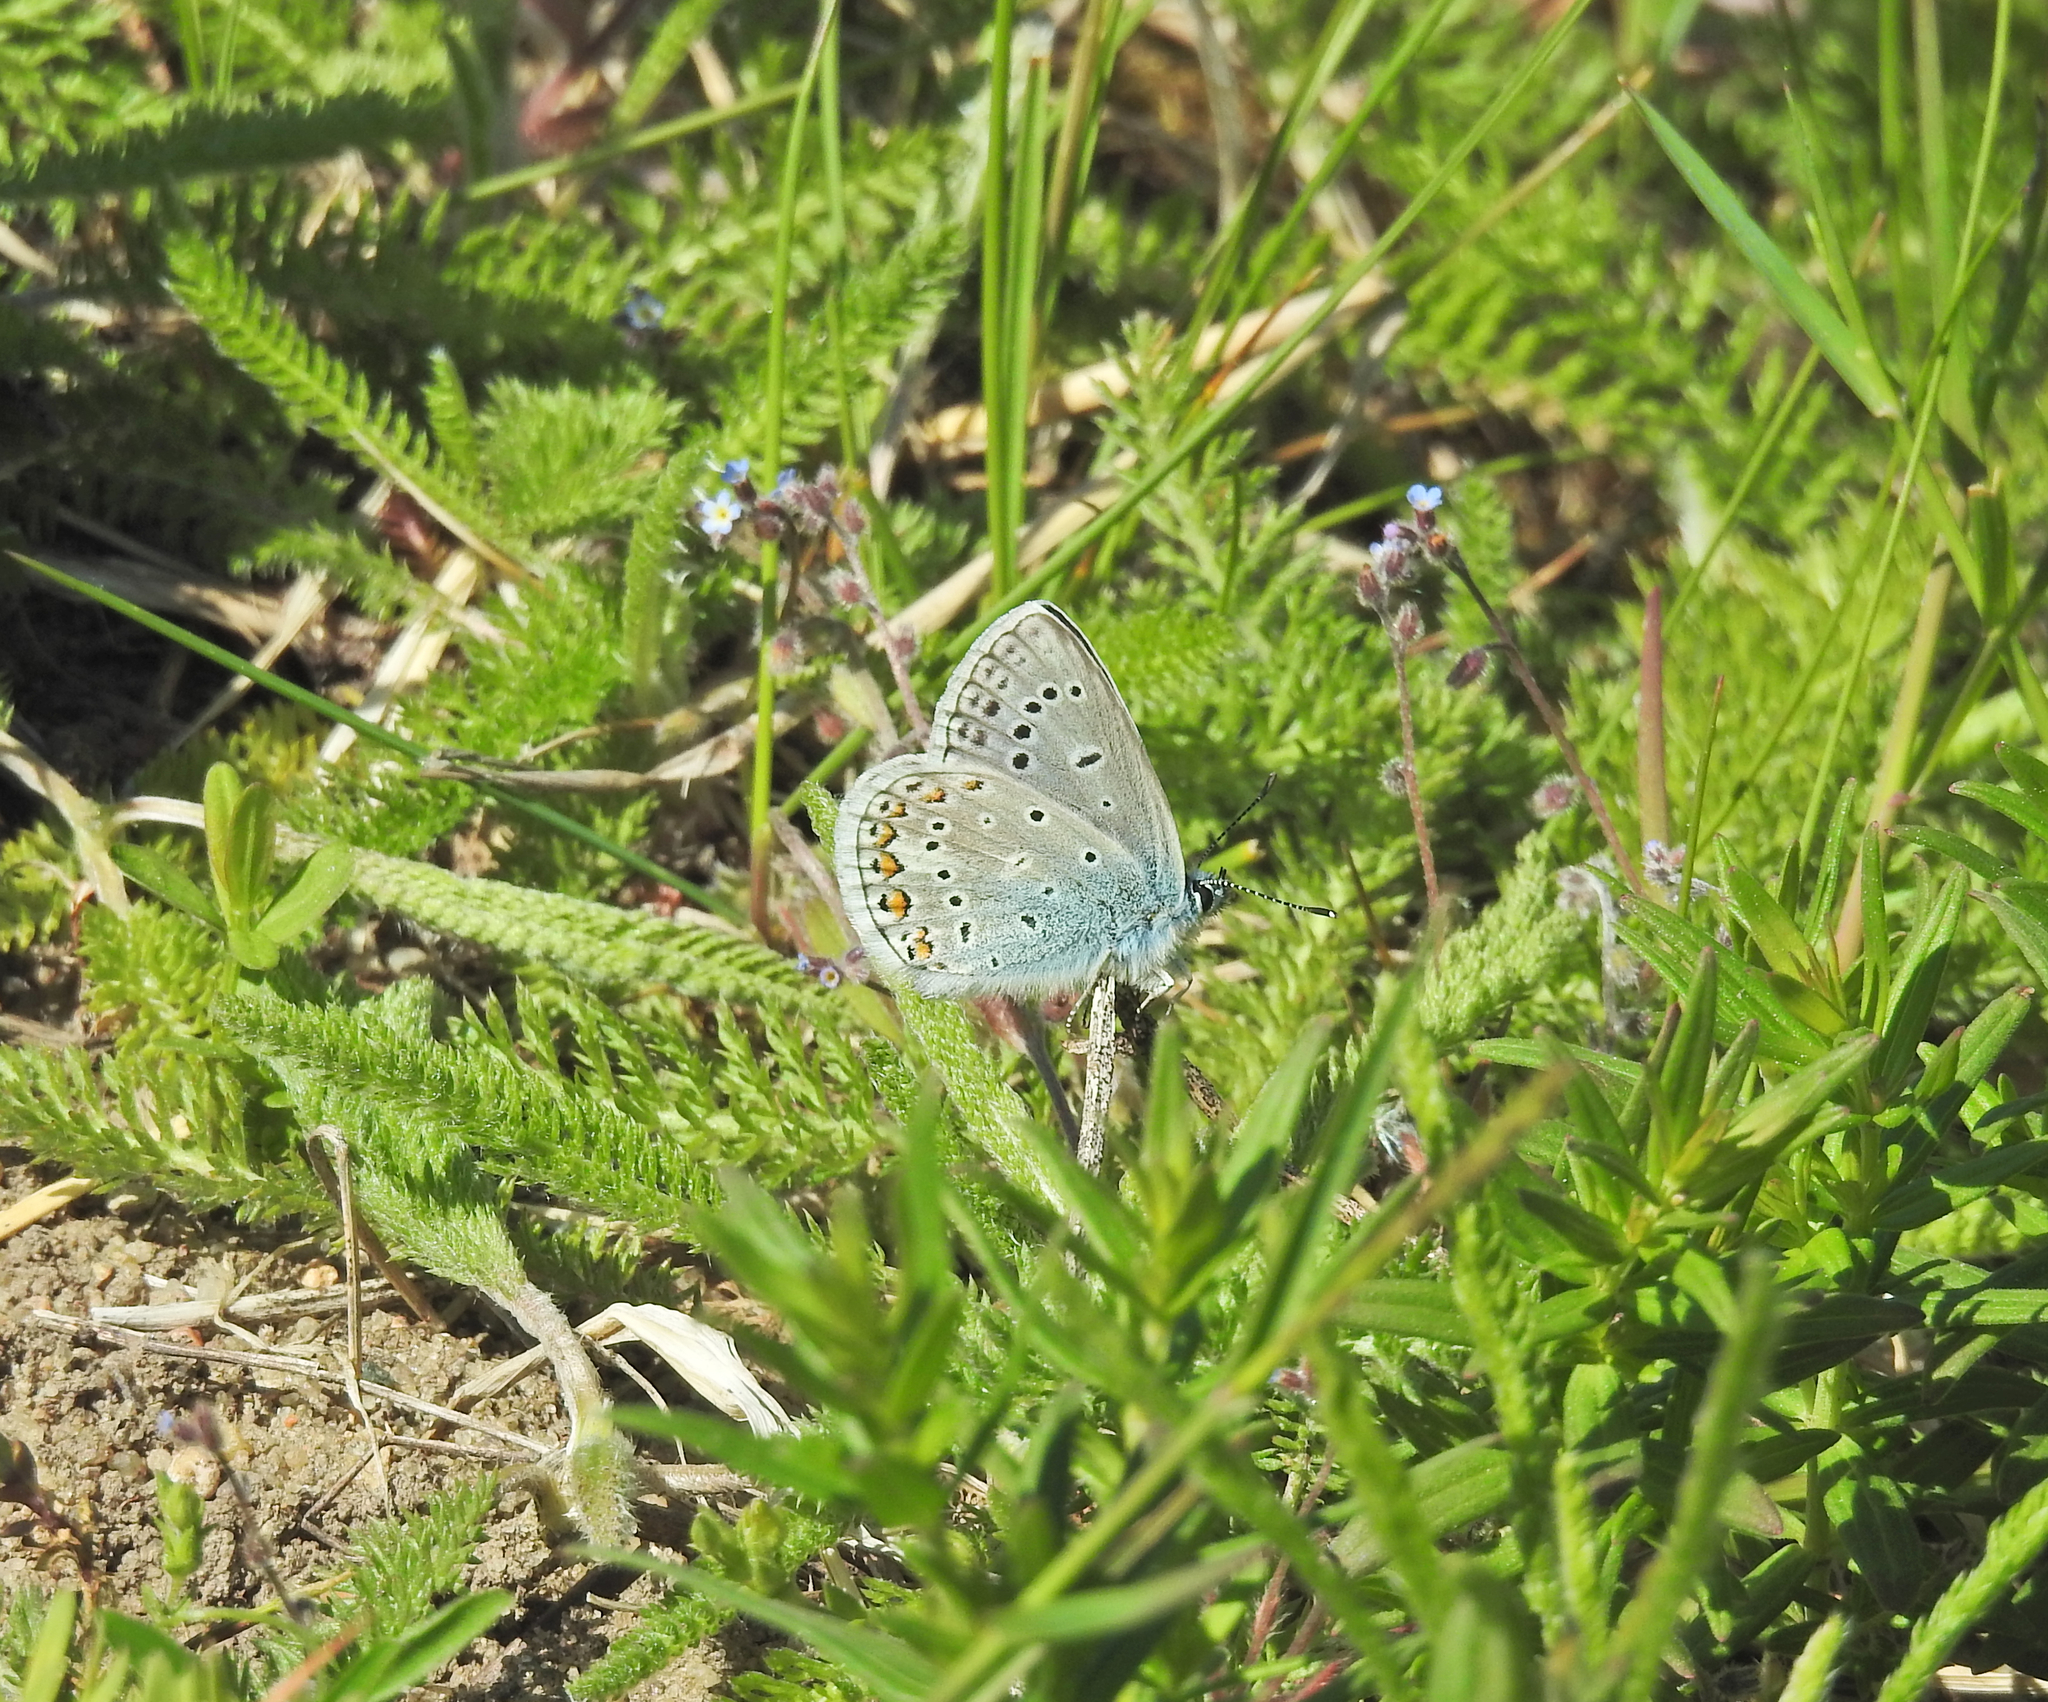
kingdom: Animalia
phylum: Arthropoda
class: Insecta
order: Lepidoptera
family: Lycaenidae
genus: Polyommatus
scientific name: Polyommatus icarus
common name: Common blue
